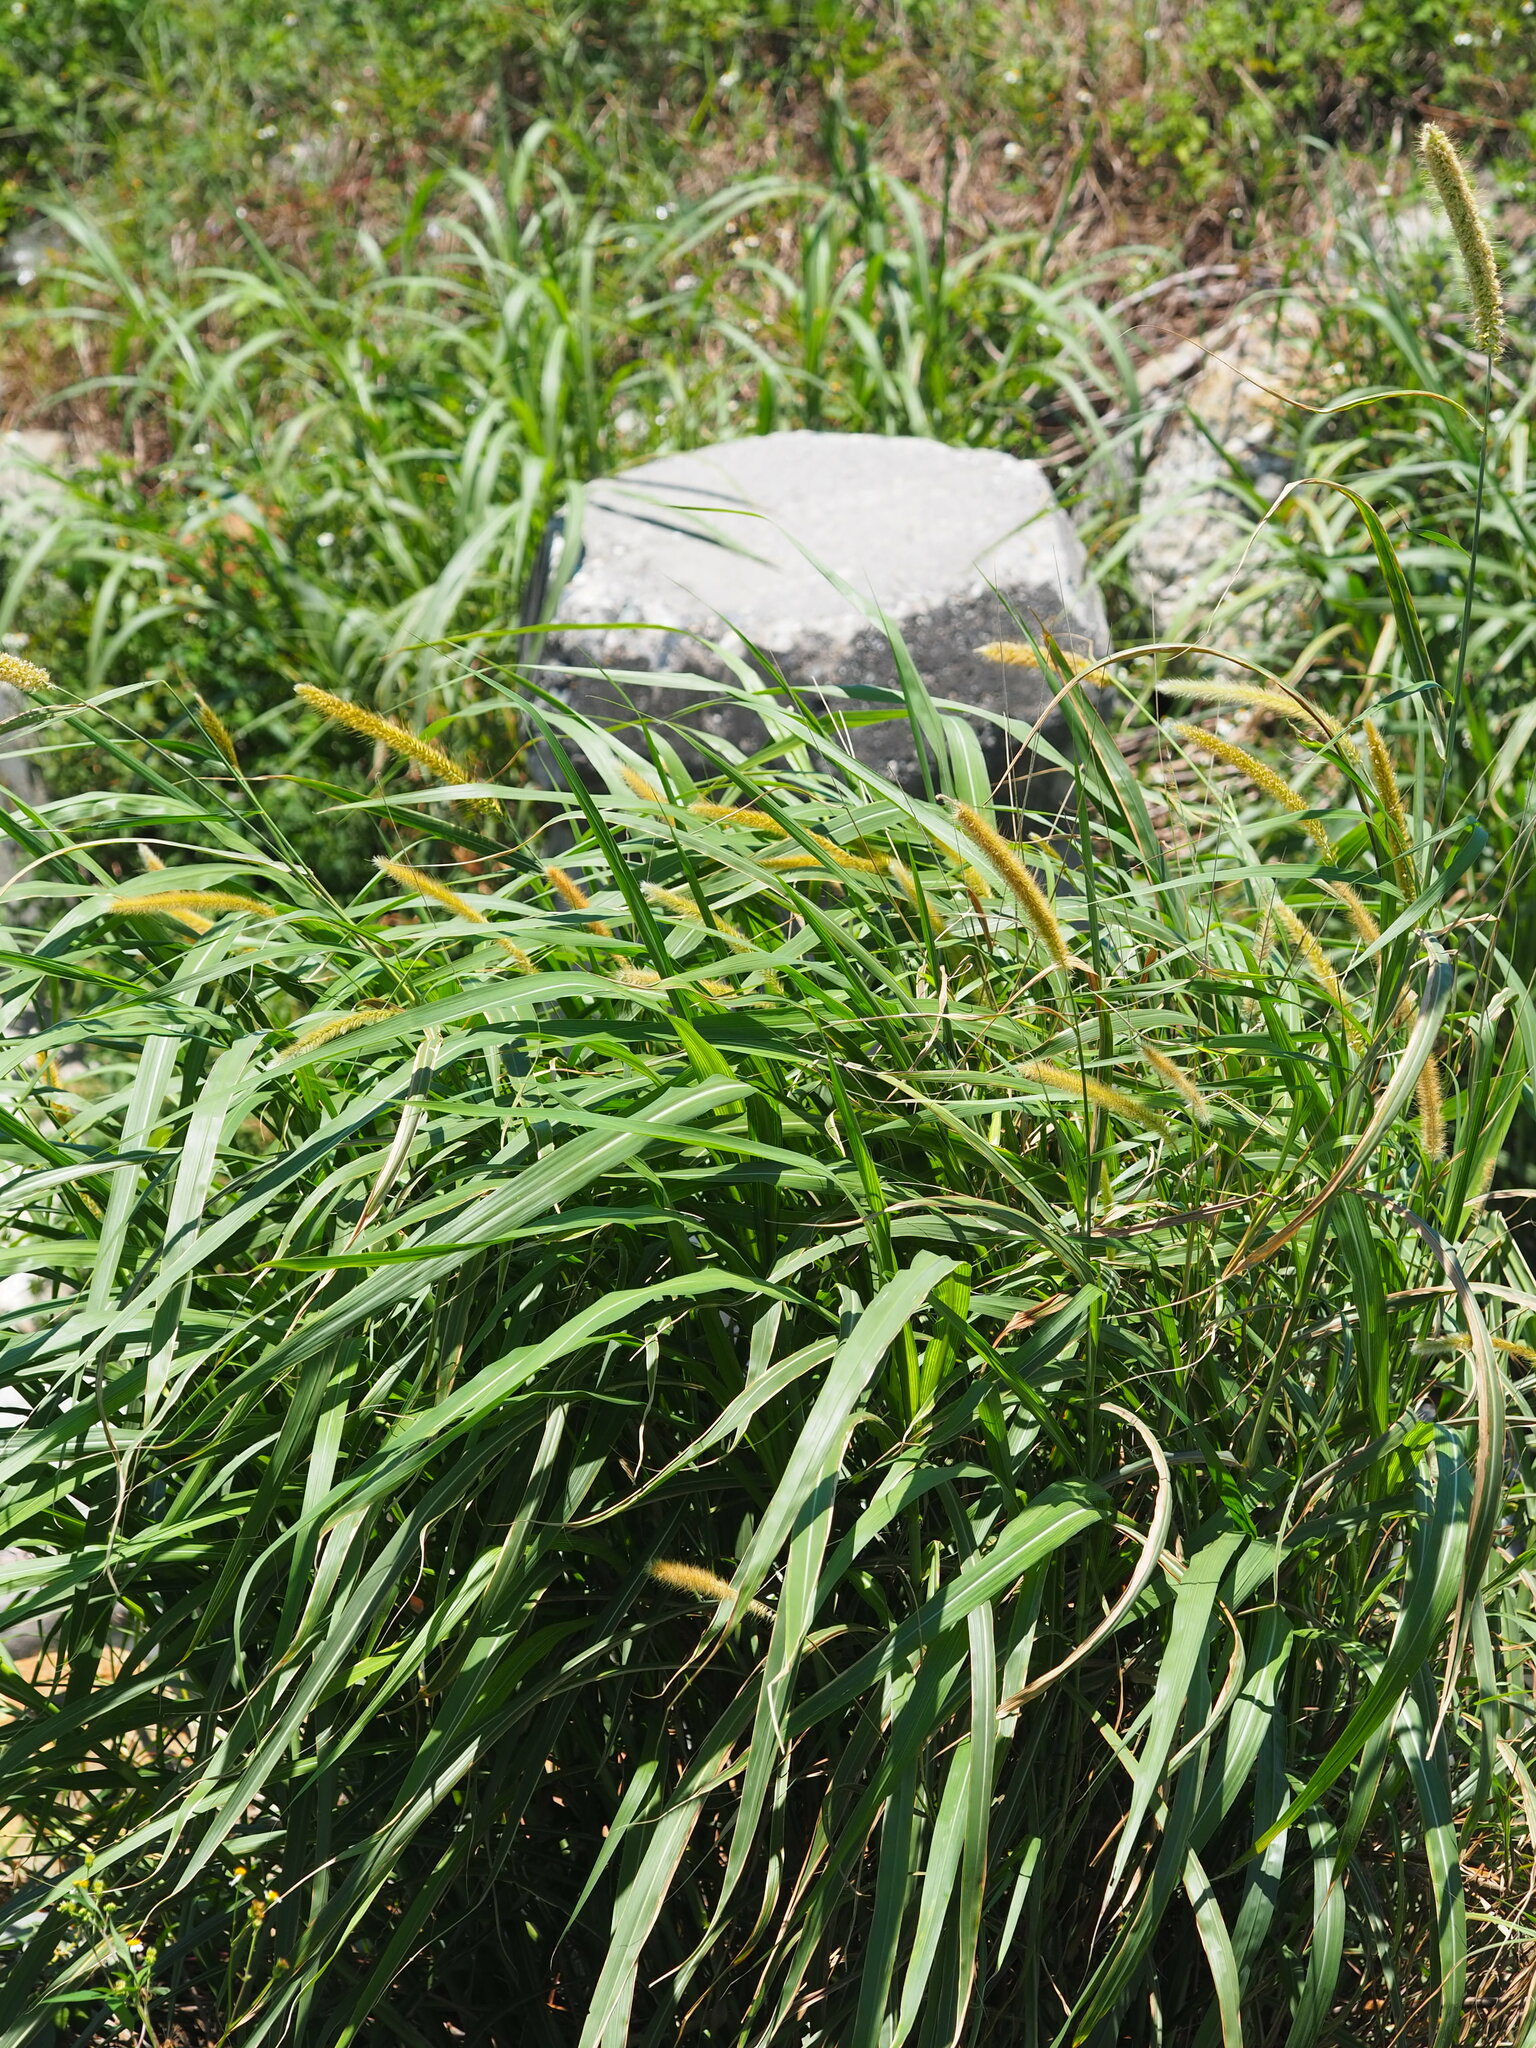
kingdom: Plantae
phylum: Tracheophyta
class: Liliopsida
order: Poales
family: Poaceae
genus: Cenchrus
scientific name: Cenchrus purpureus
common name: Elephant grass
